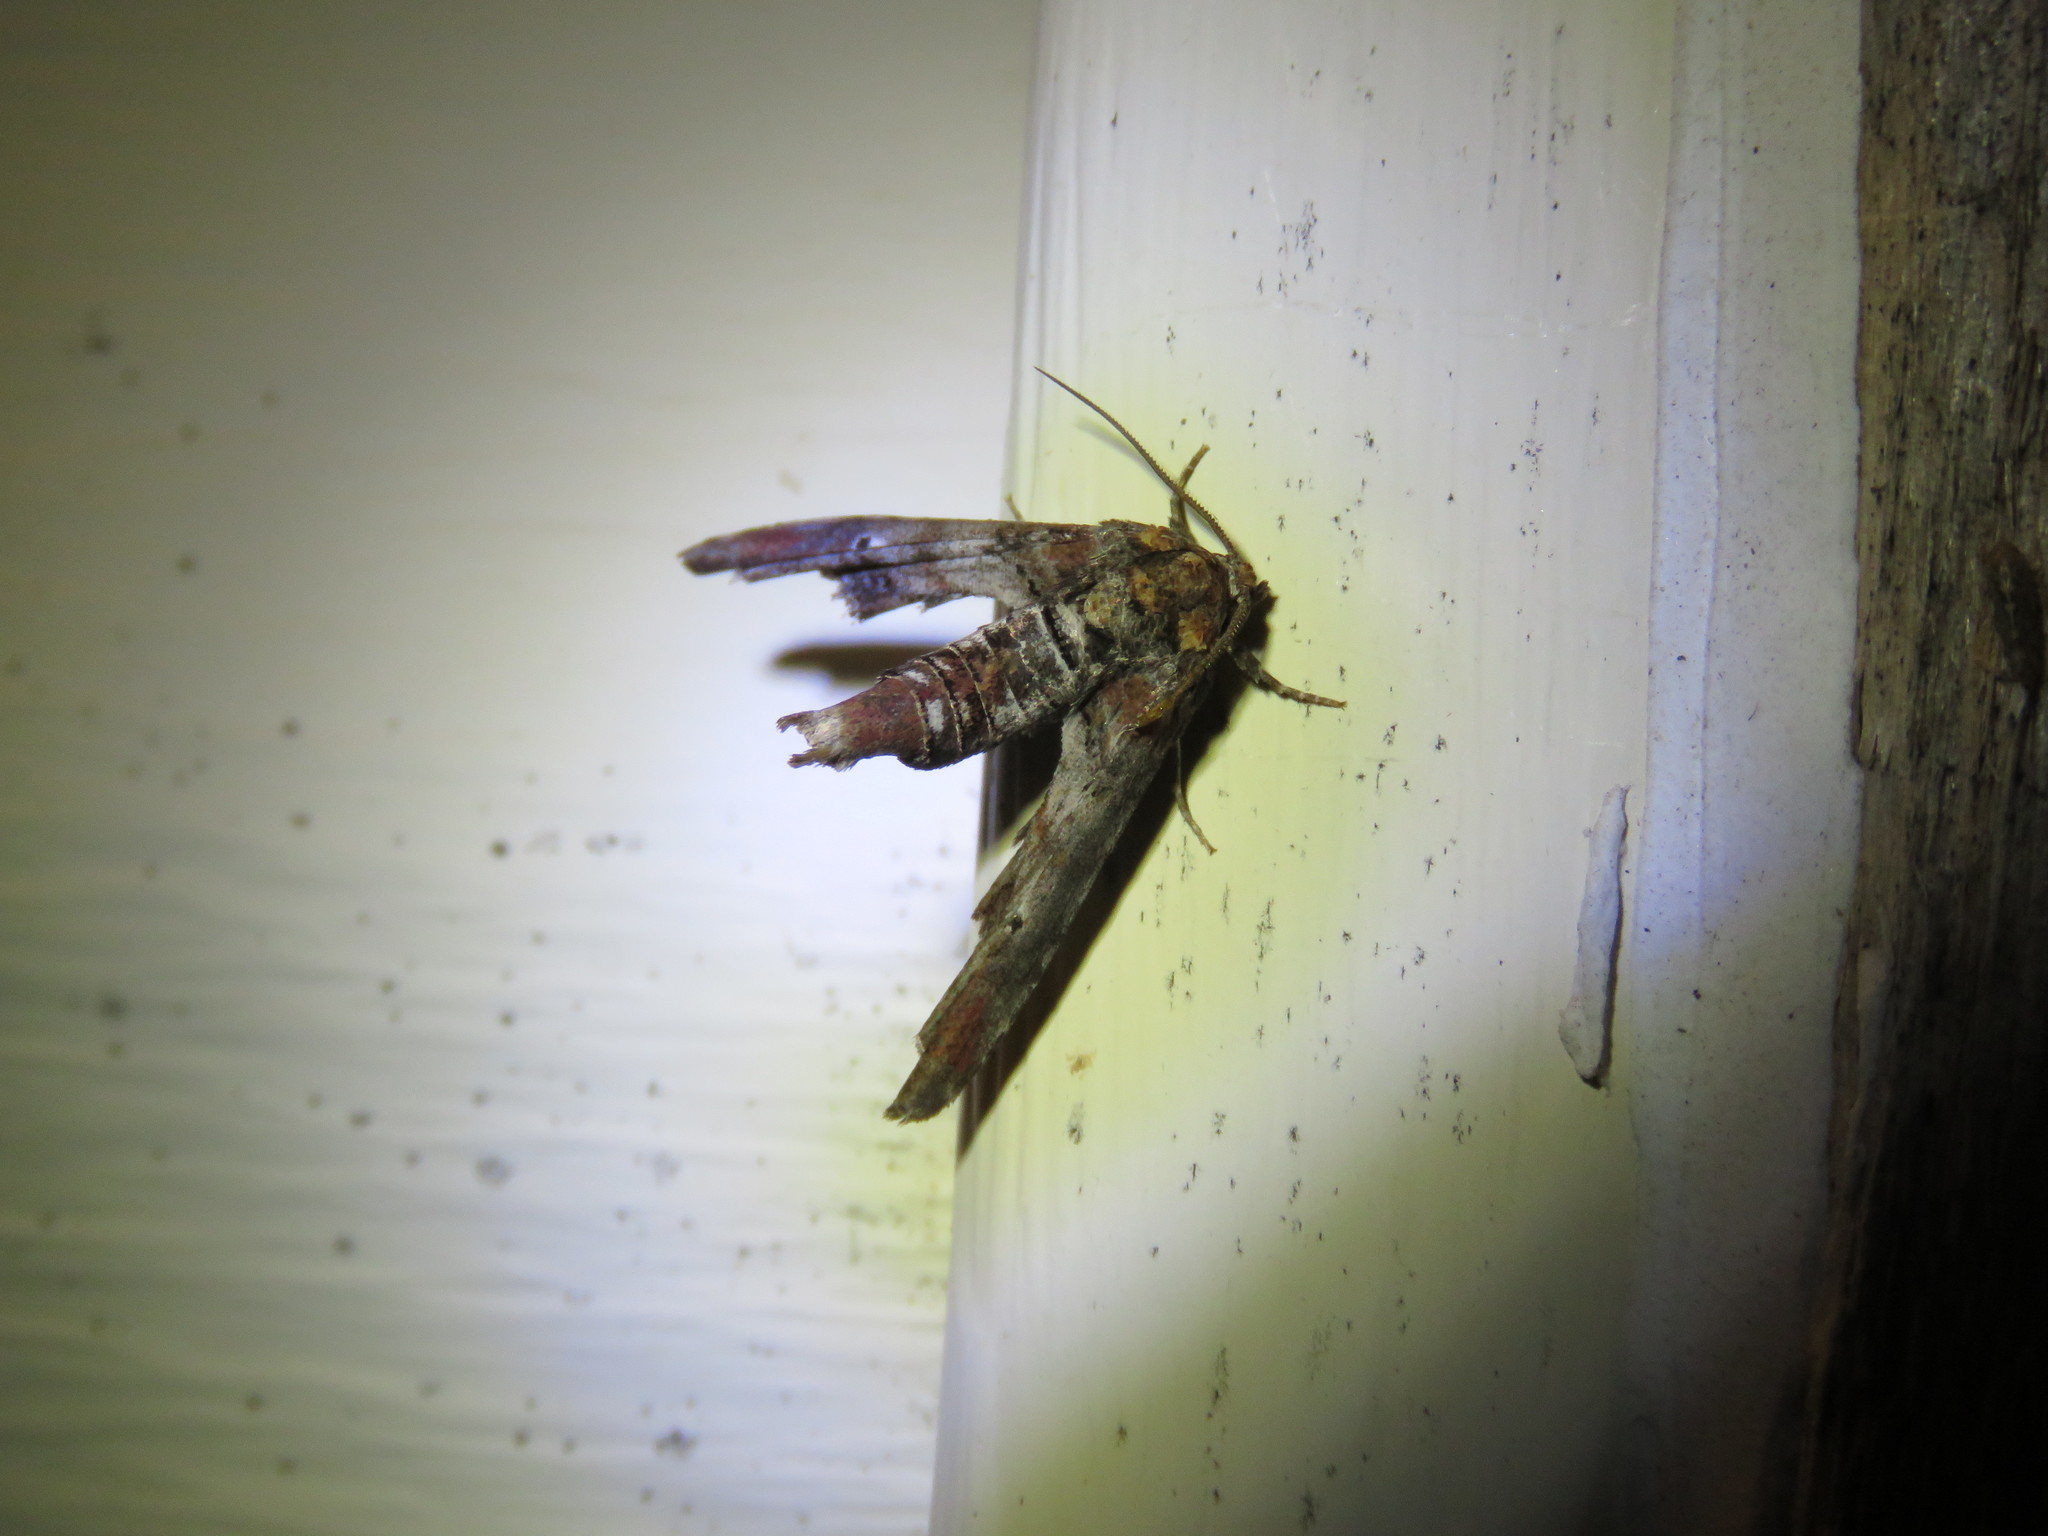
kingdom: Animalia
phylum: Arthropoda
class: Insecta
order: Lepidoptera
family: Euteliidae
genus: Marathyssa
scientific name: Marathyssa inficita
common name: Dark marathyssa moth
